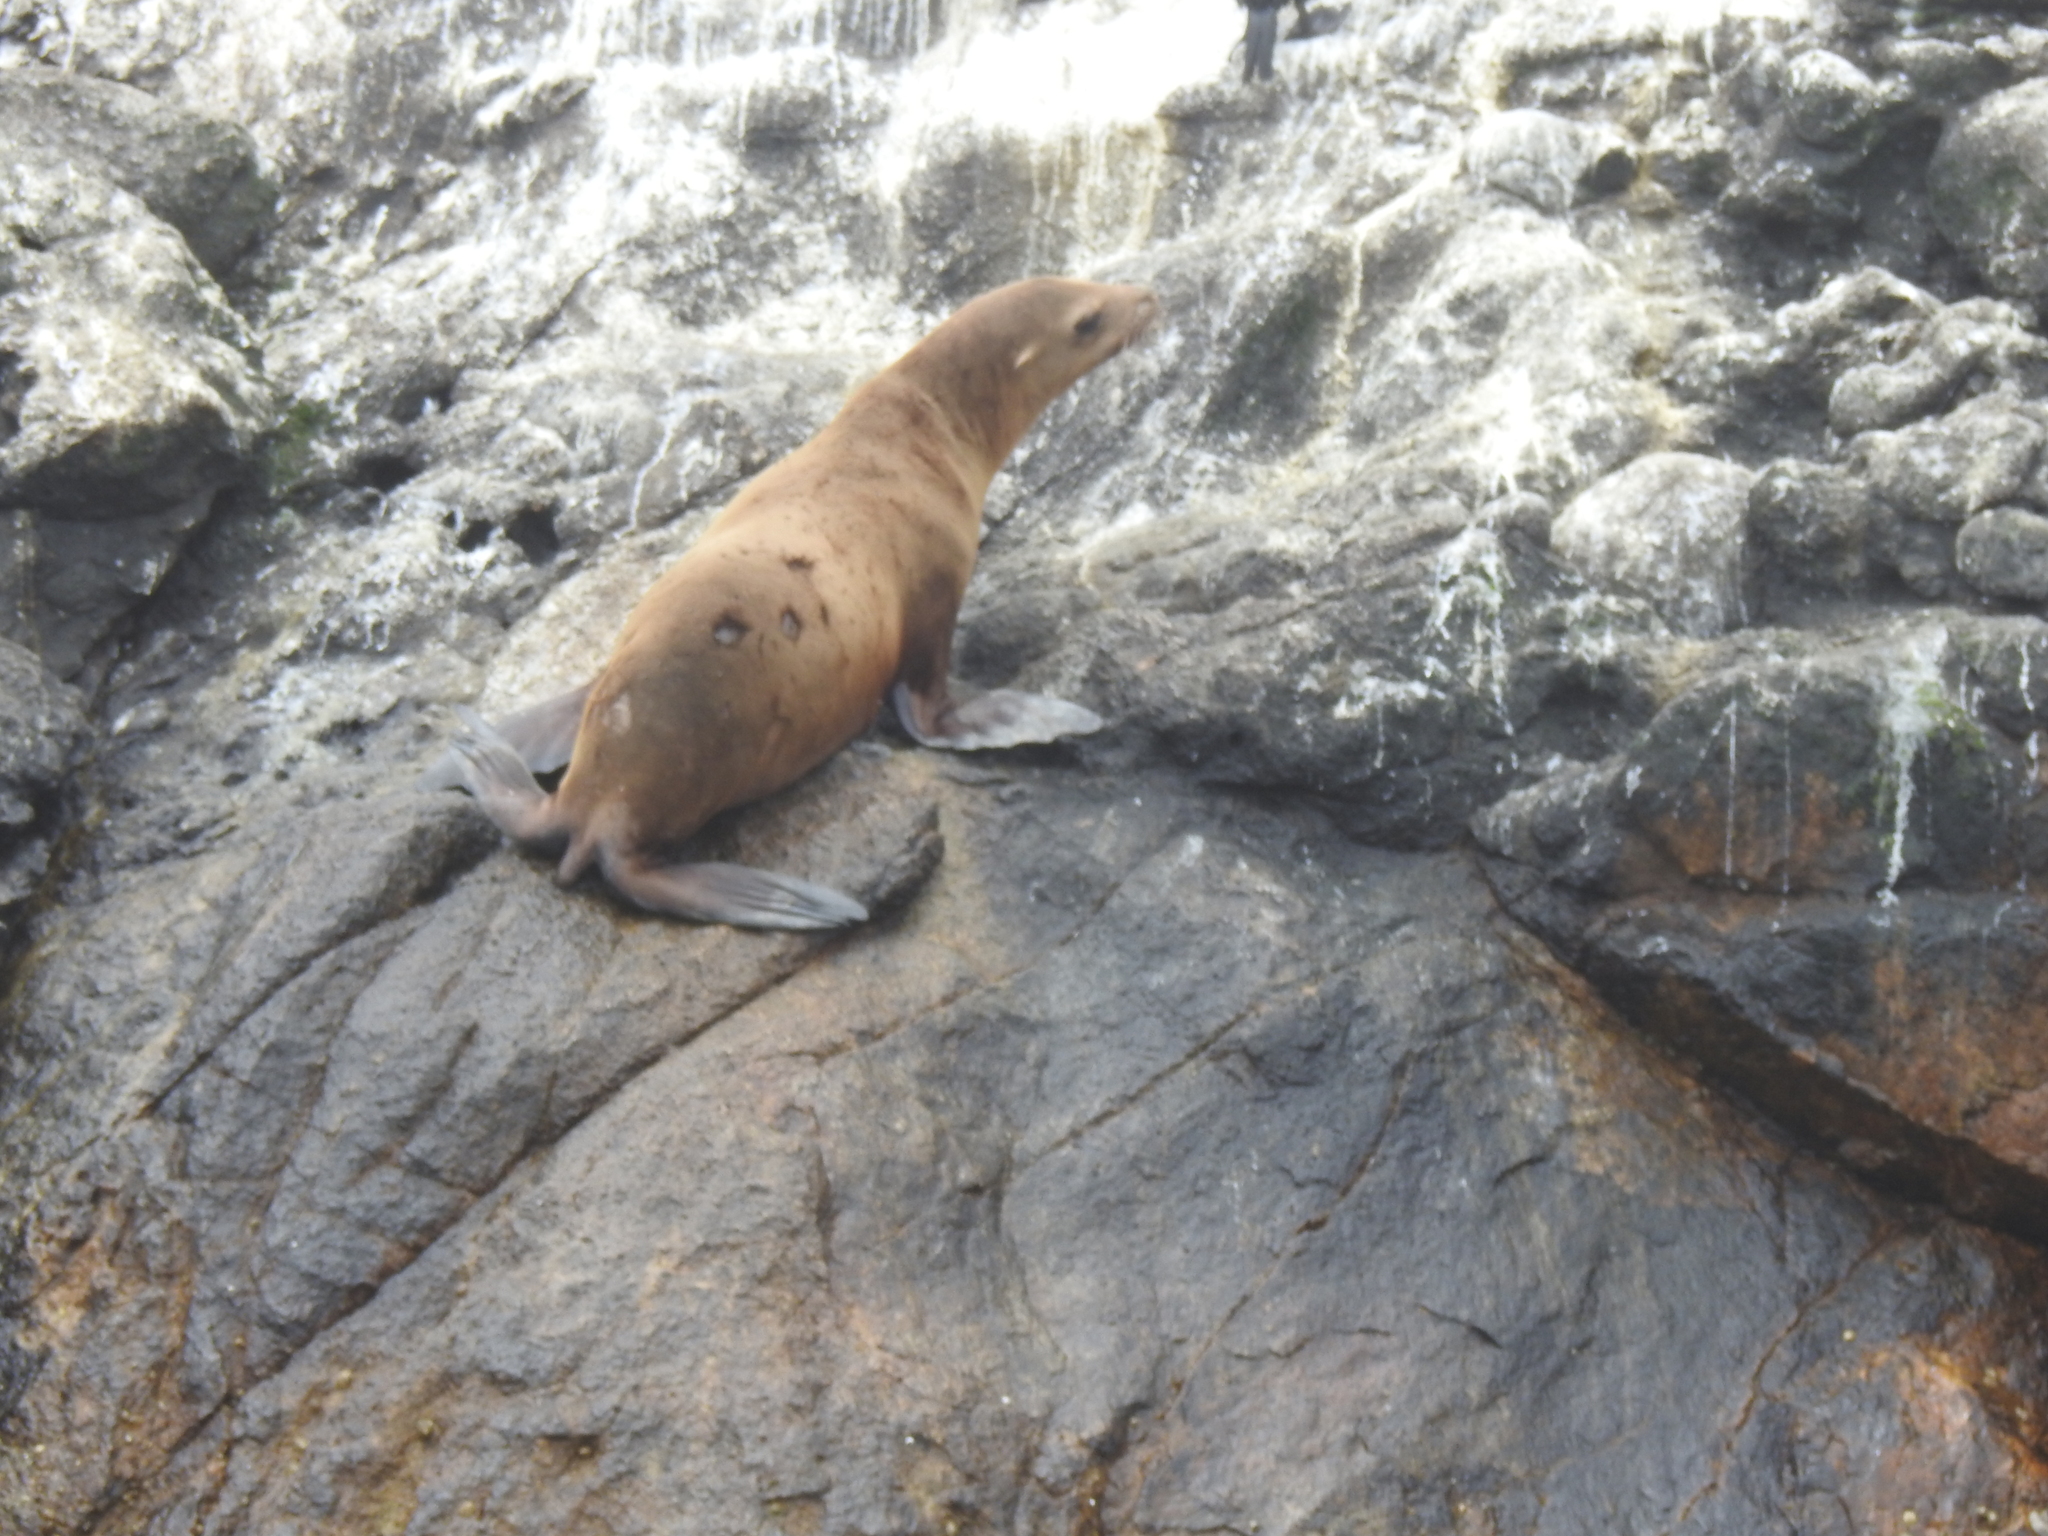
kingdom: Animalia
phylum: Chordata
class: Mammalia
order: Carnivora
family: Otariidae
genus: Zalophus
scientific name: Zalophus californianus
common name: California sea lion
